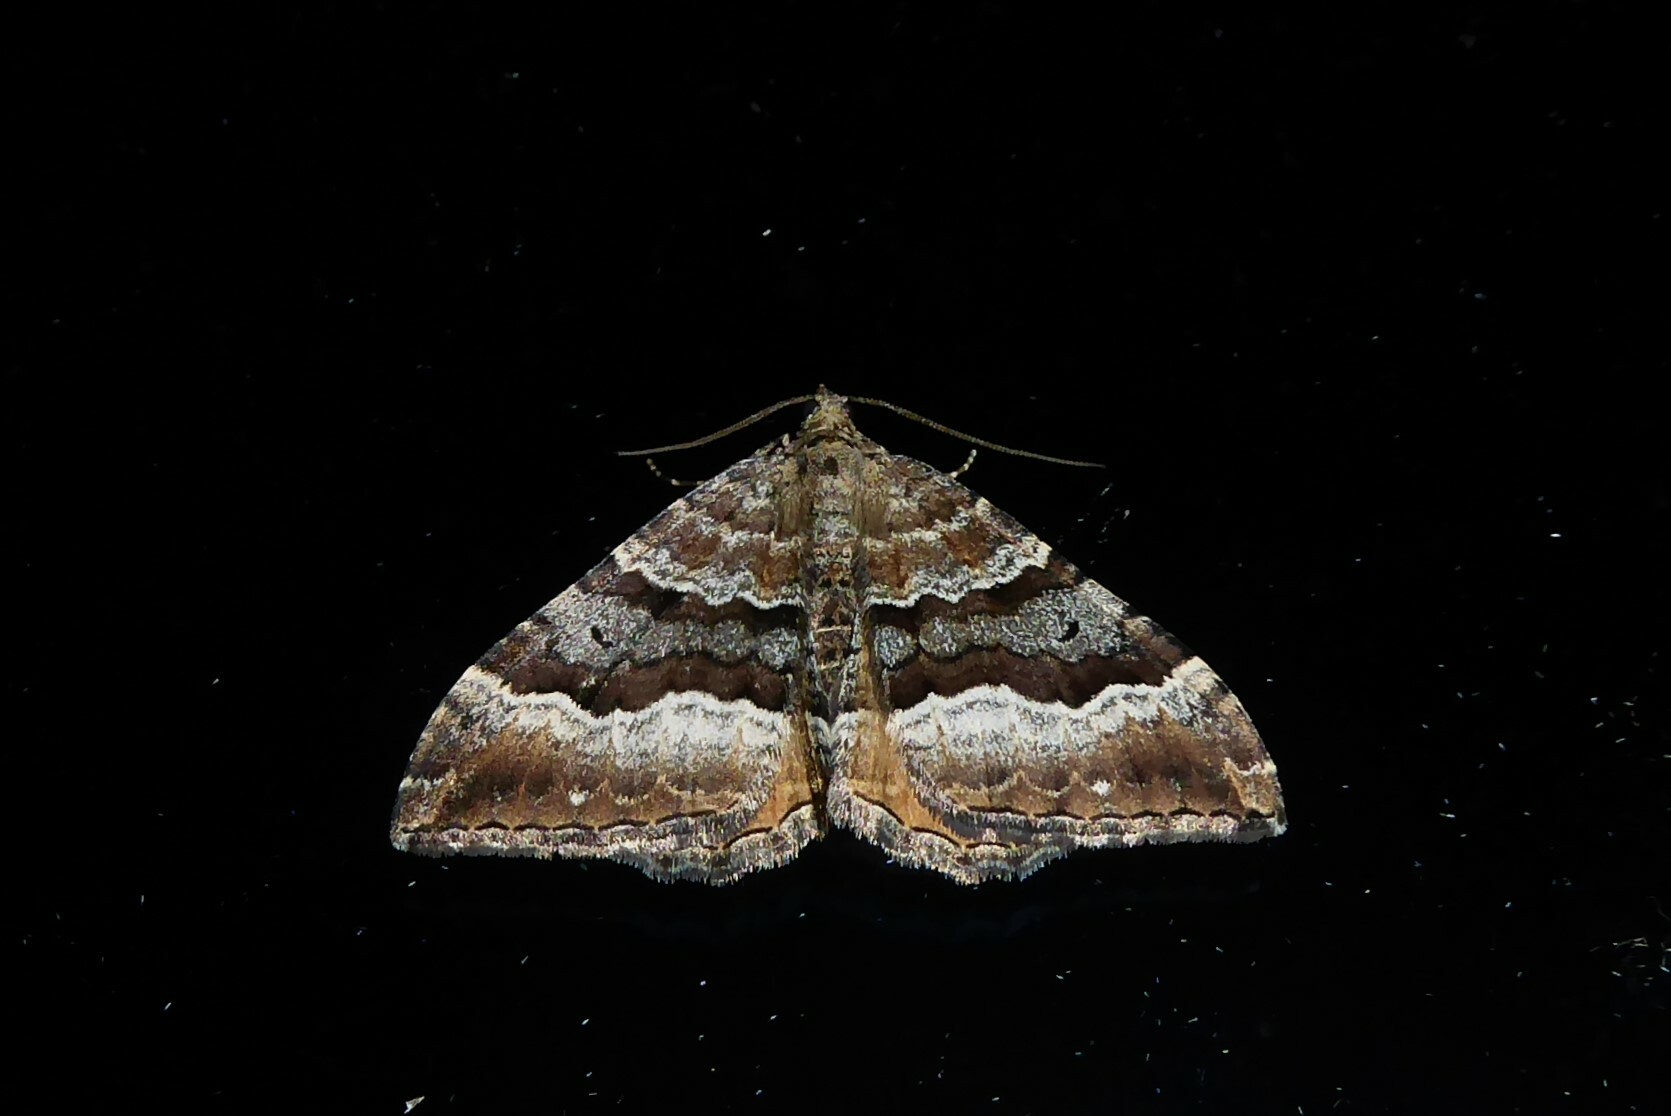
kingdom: Animalia
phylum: Arthropoda
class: Insecta
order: Lepidoptera
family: Geometridae
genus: Hydriomena
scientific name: Hydriomena deltoidata
